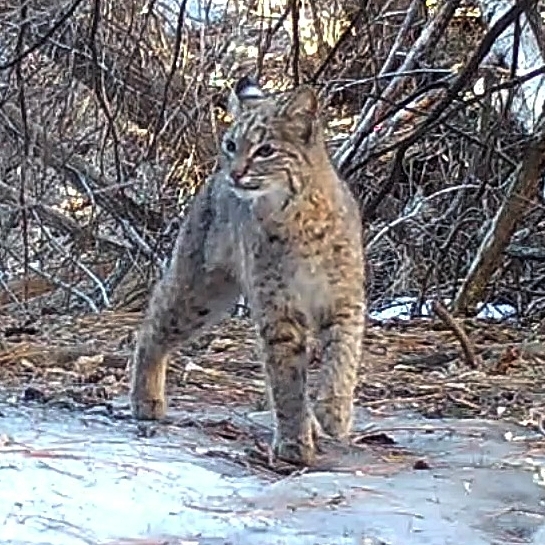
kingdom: Animalia
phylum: Chordata
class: Mammalia
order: Carnivora
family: Felidae
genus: Lynx
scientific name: Lynx rufus
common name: Bobcat
